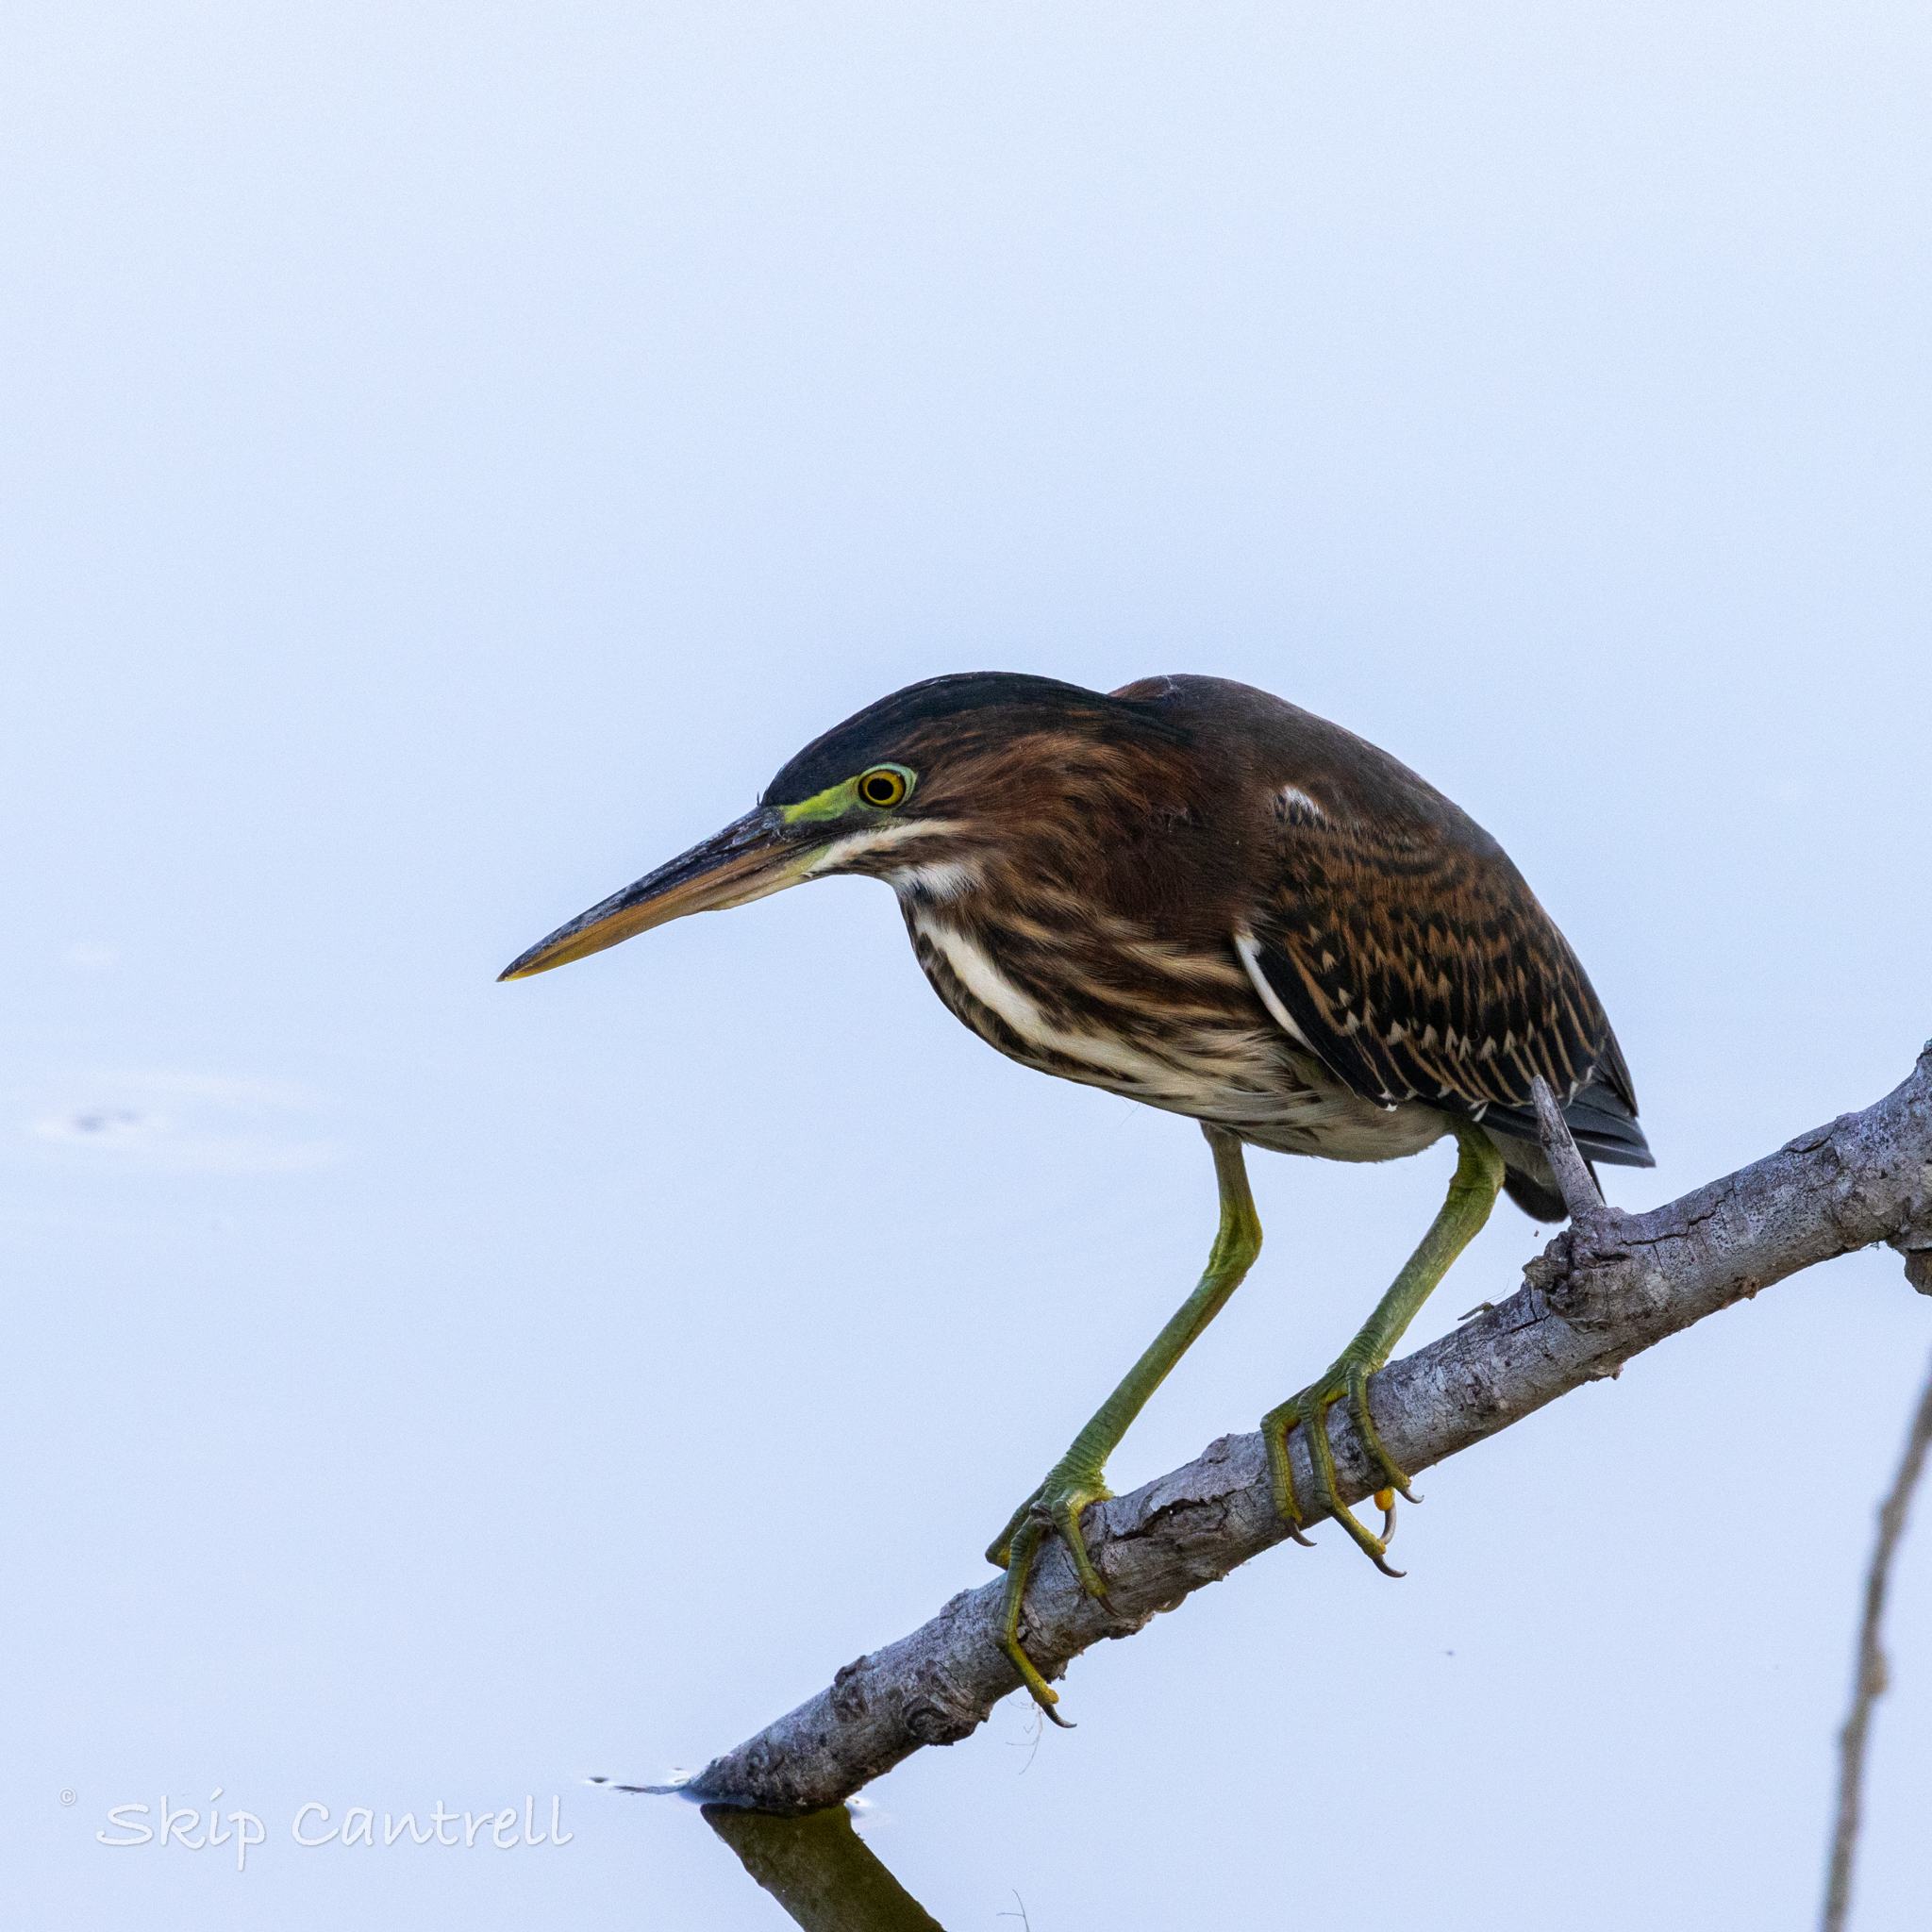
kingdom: Animalia
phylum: Chordata
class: Aves
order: Pelecaniformes
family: Ardeidae
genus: Butorides
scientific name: Butorides virescens
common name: Green heron
